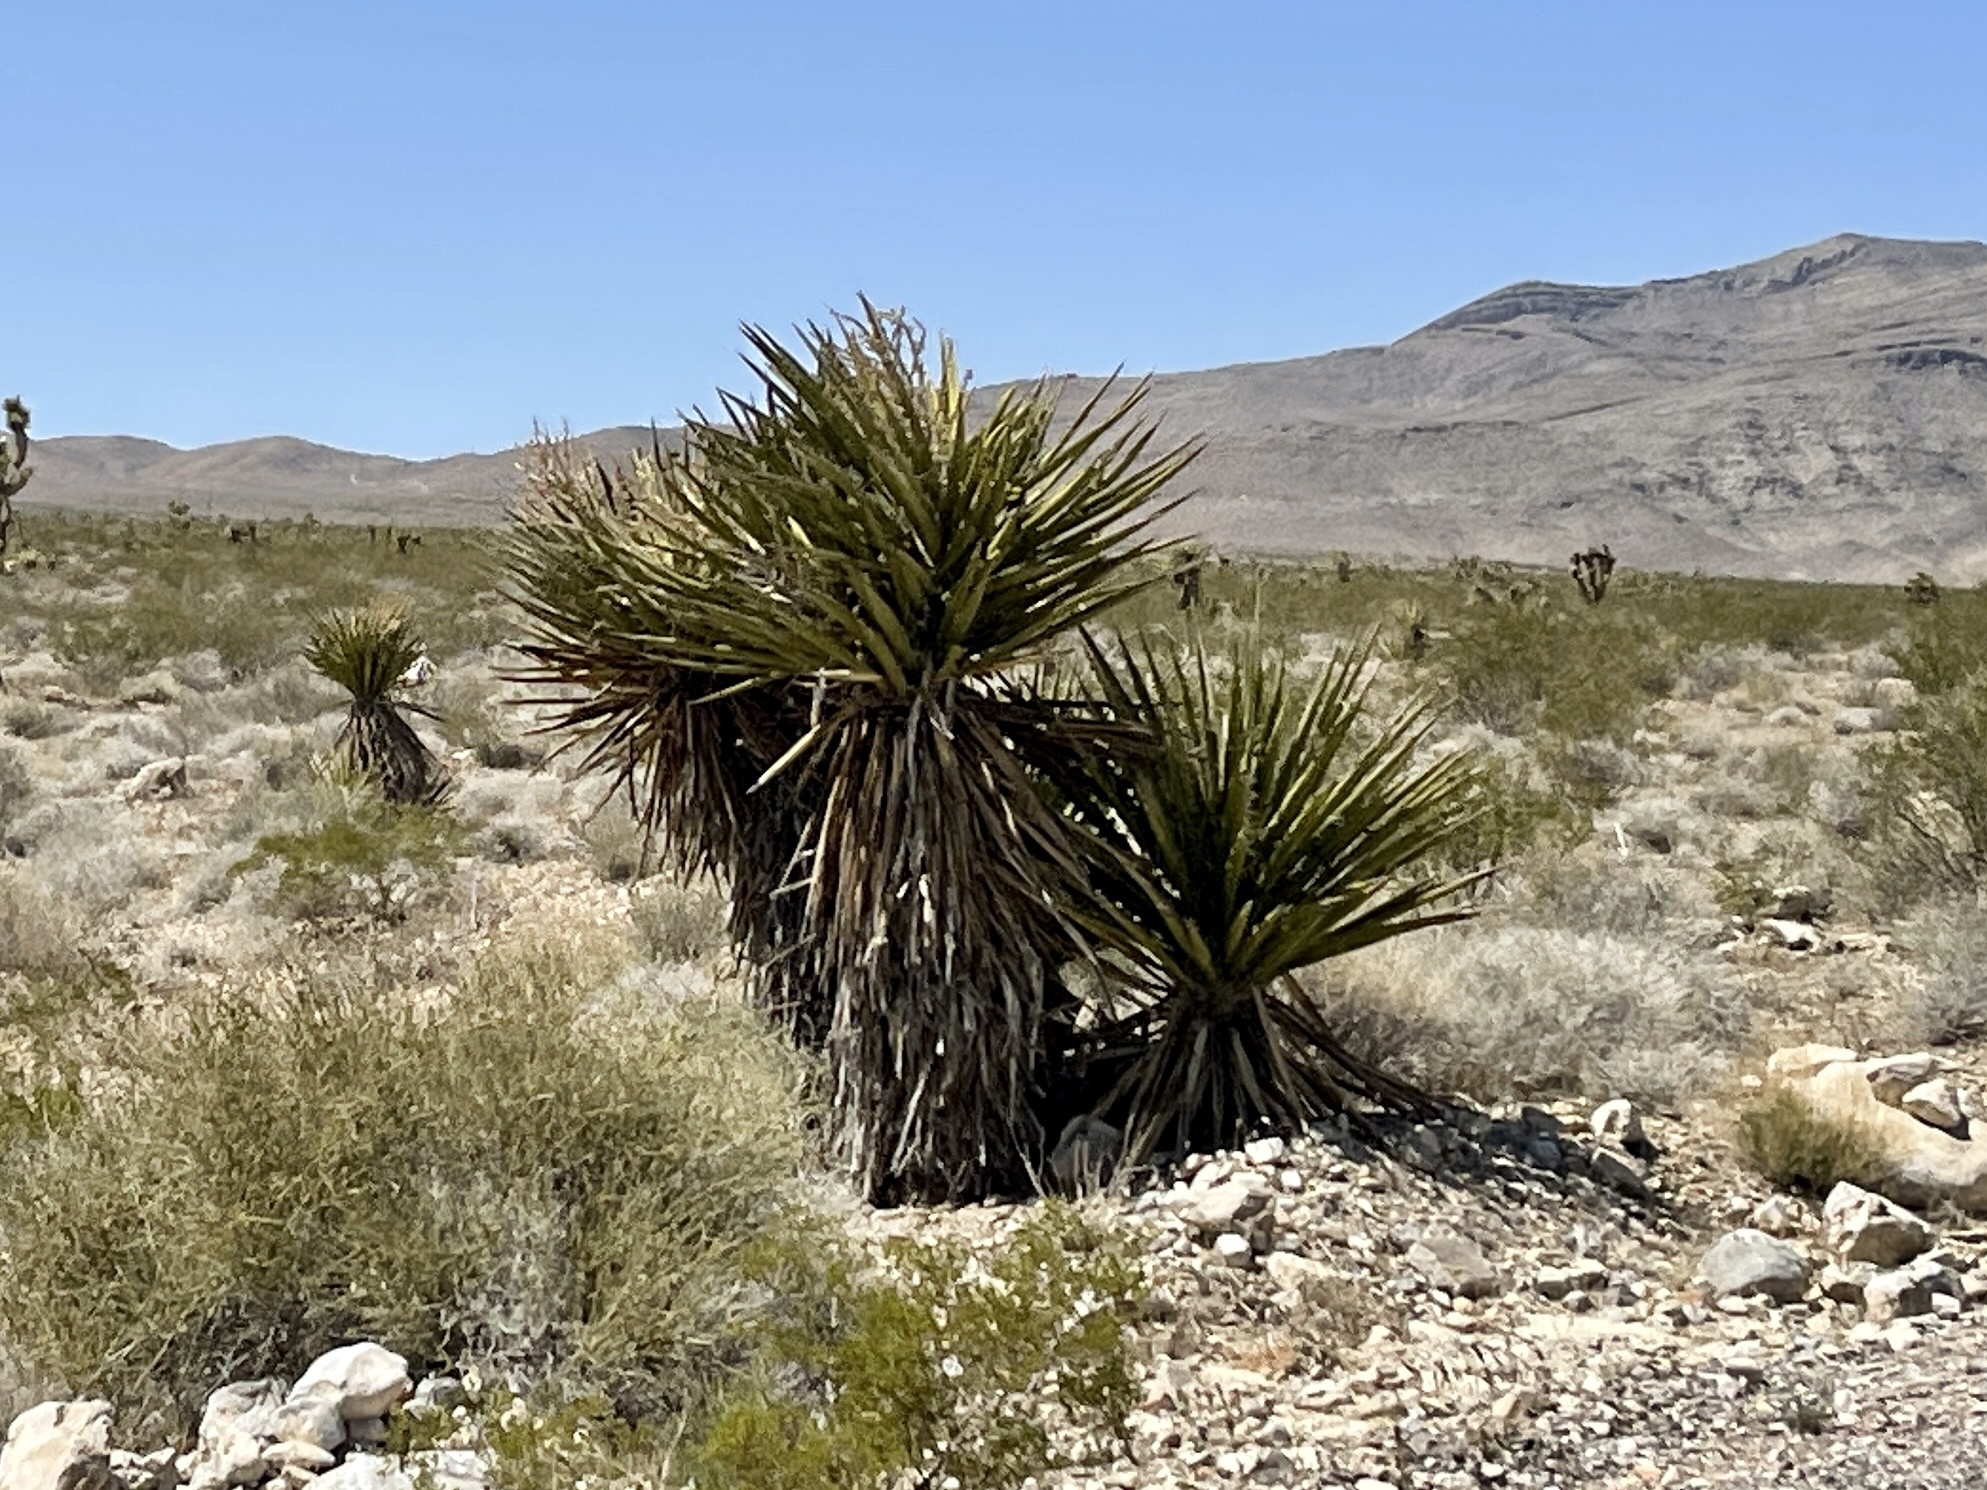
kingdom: Plantae
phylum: Tracheophyta
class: Liliopsida
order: Asparagales
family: Asparagaceae
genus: Yucca
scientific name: Yucca schidigera
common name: Mojave yucca
